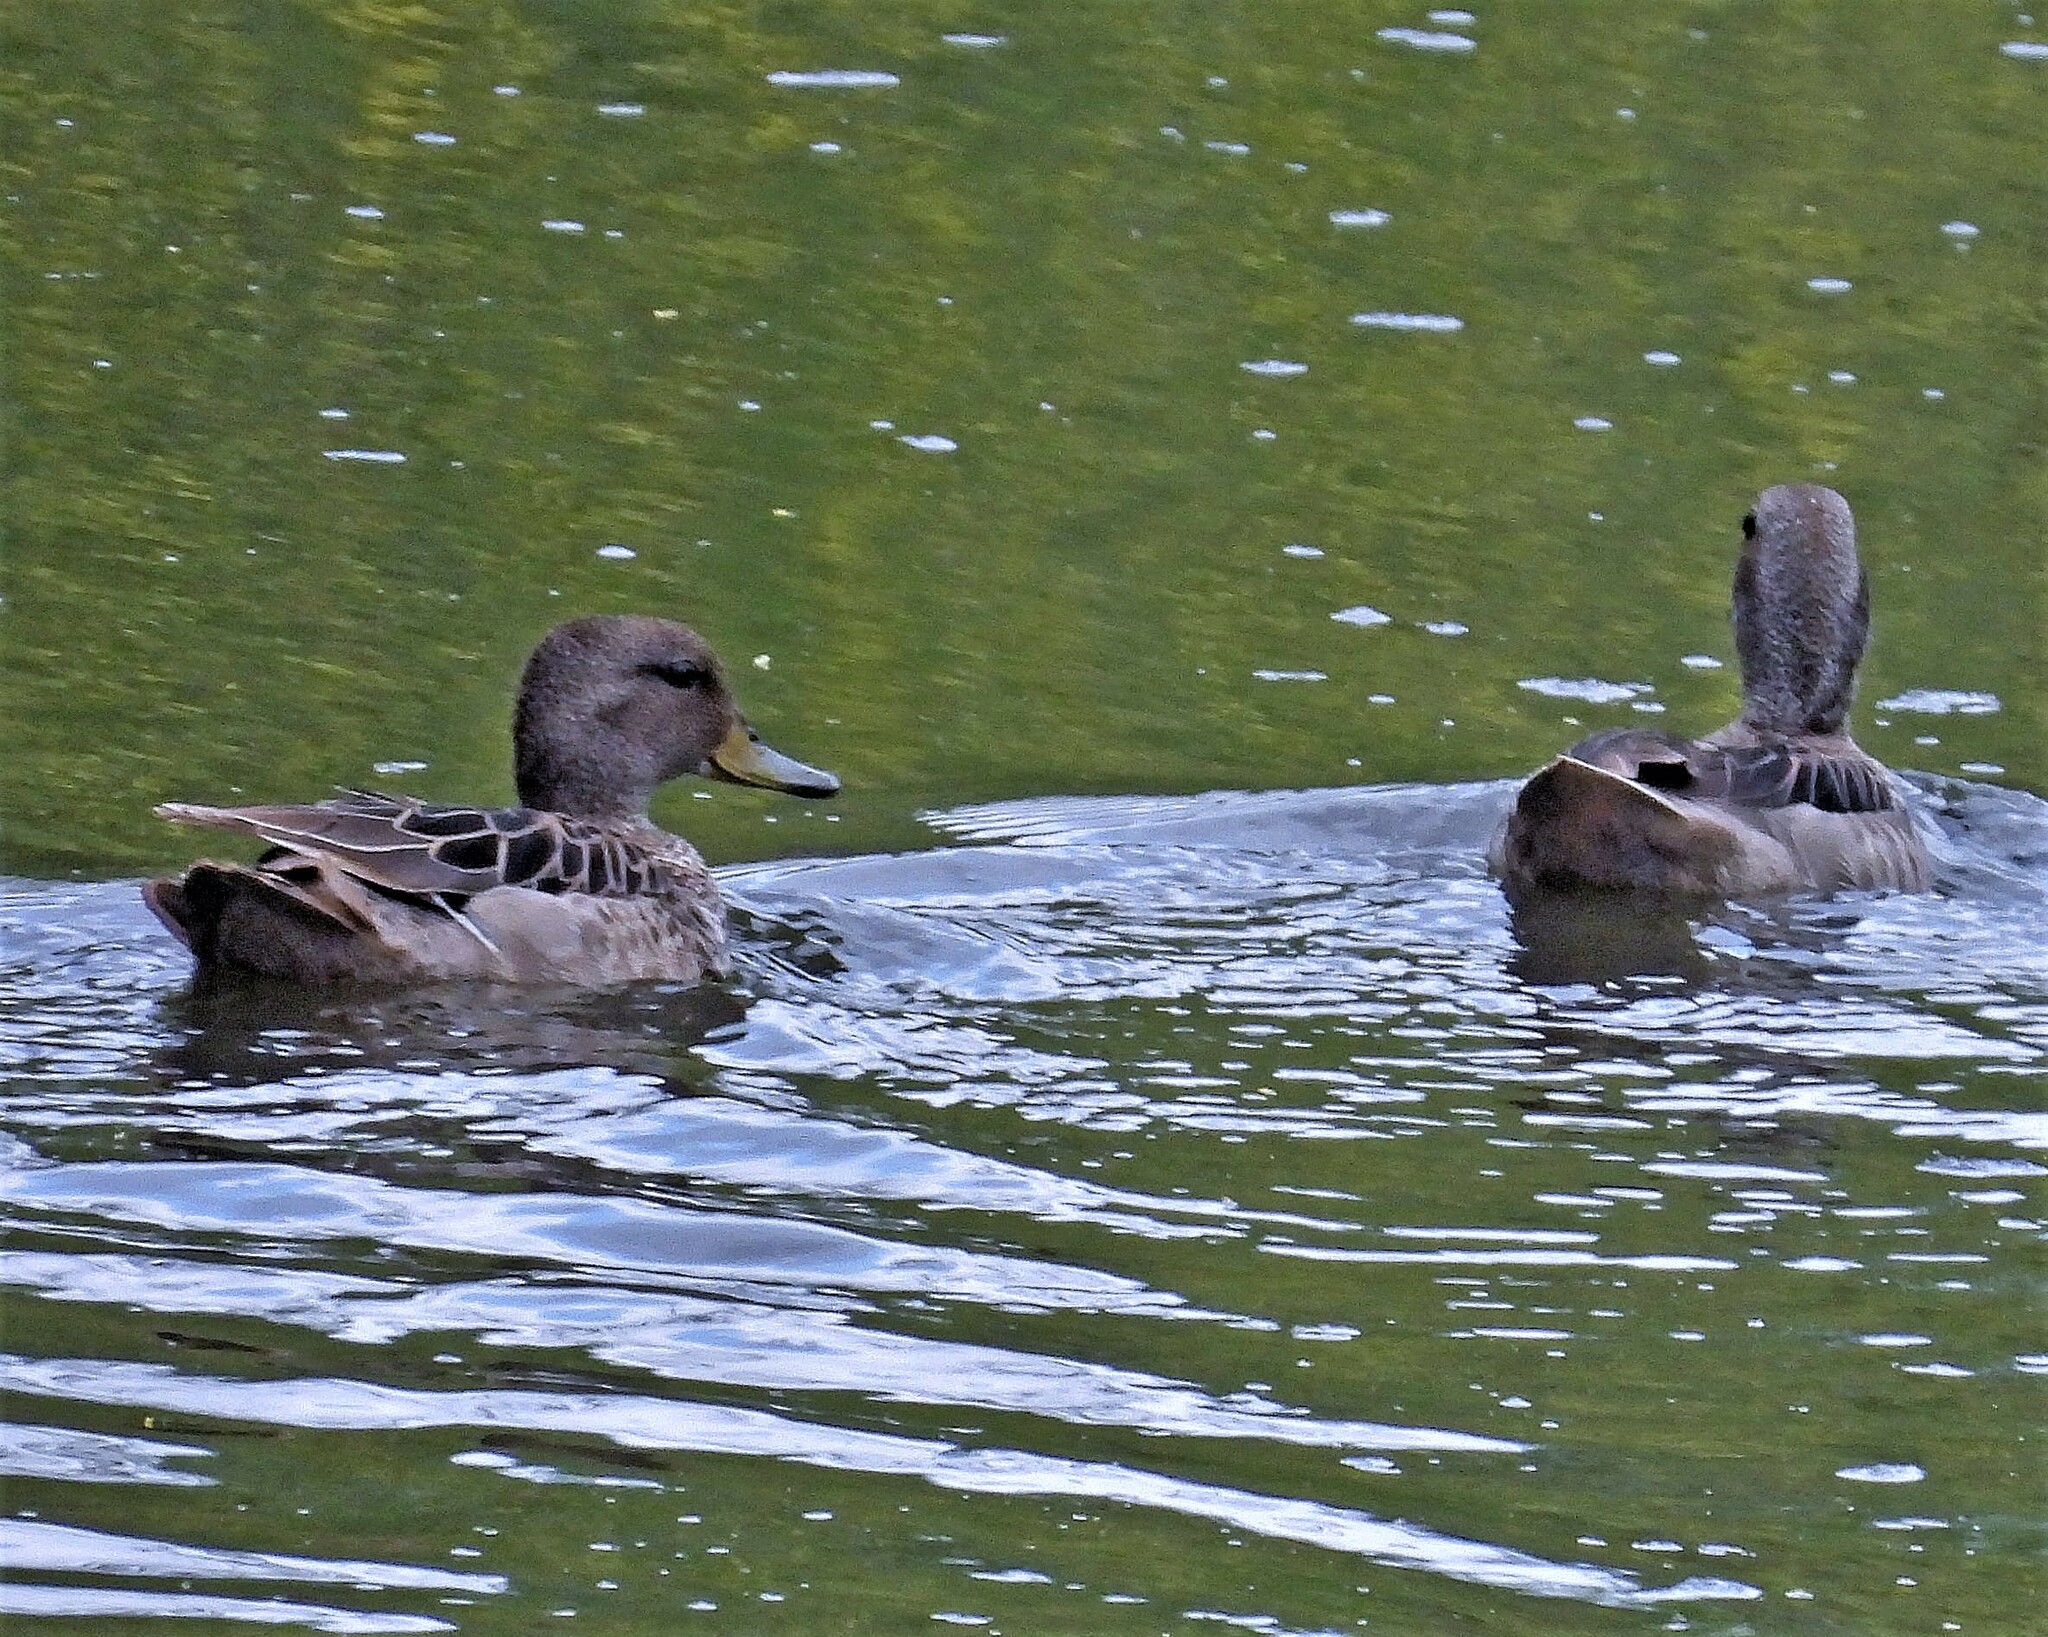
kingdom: Animalia
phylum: Chordata
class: Aves
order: Anseriformes
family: Anatidae
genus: Anas
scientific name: Anas flavirostris
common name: Yellow-billed teal
